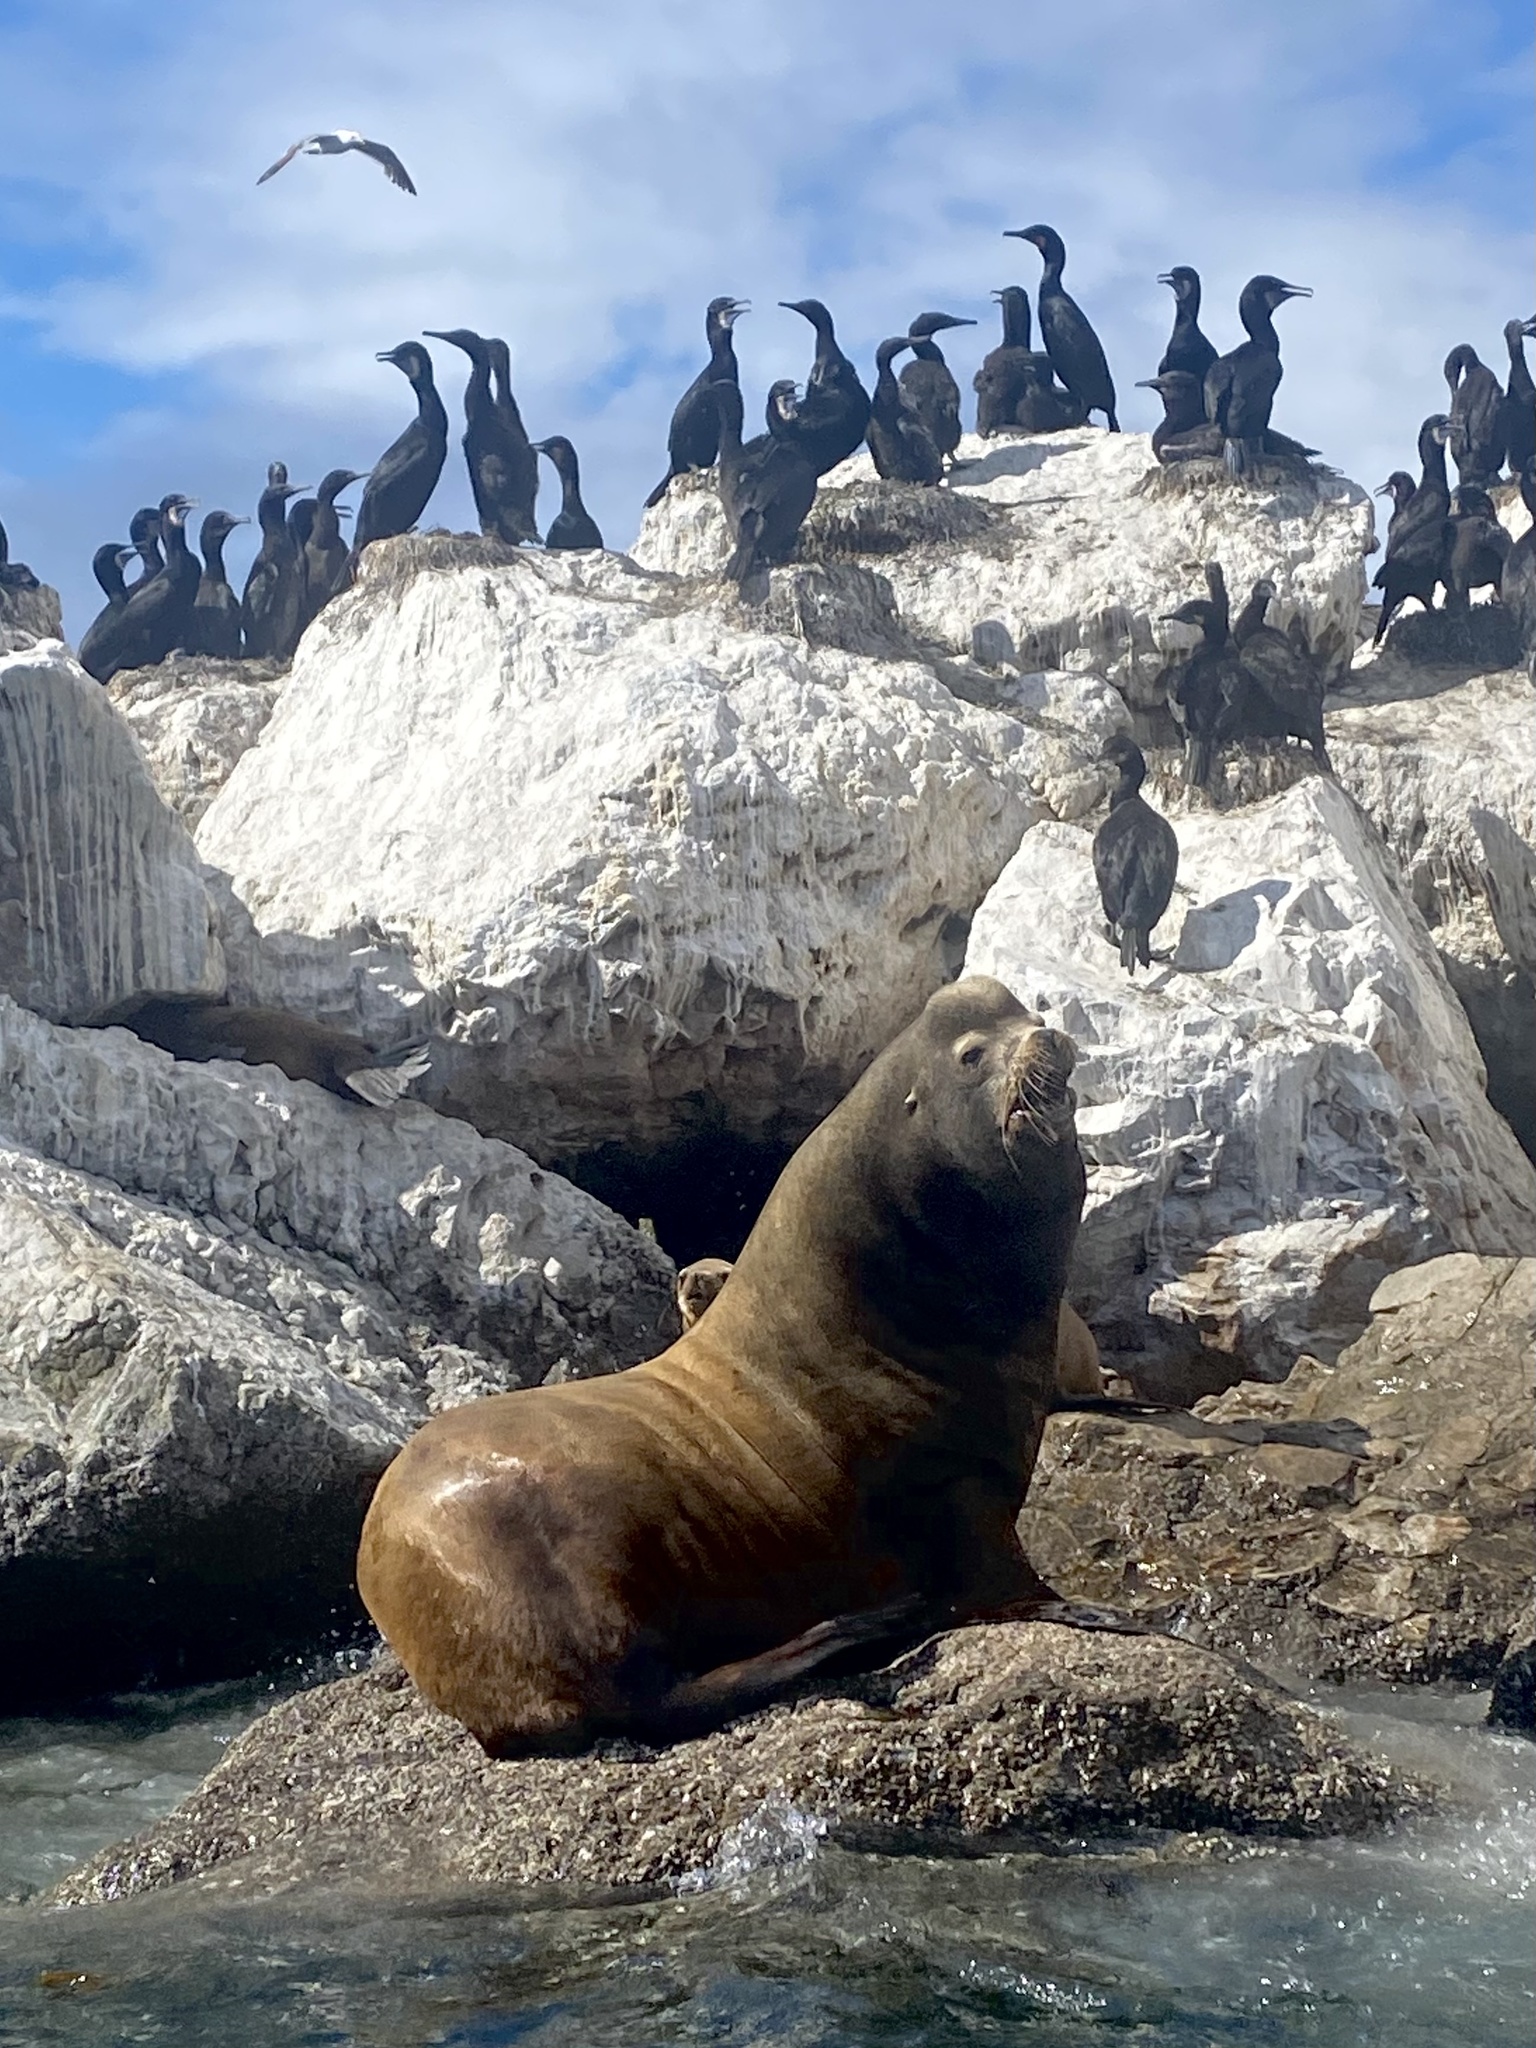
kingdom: Animalia
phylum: Chordata
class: Mammalia
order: Carnivora
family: Otariidae
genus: Zalophus
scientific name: Zalophus californianus
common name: California sea lion
